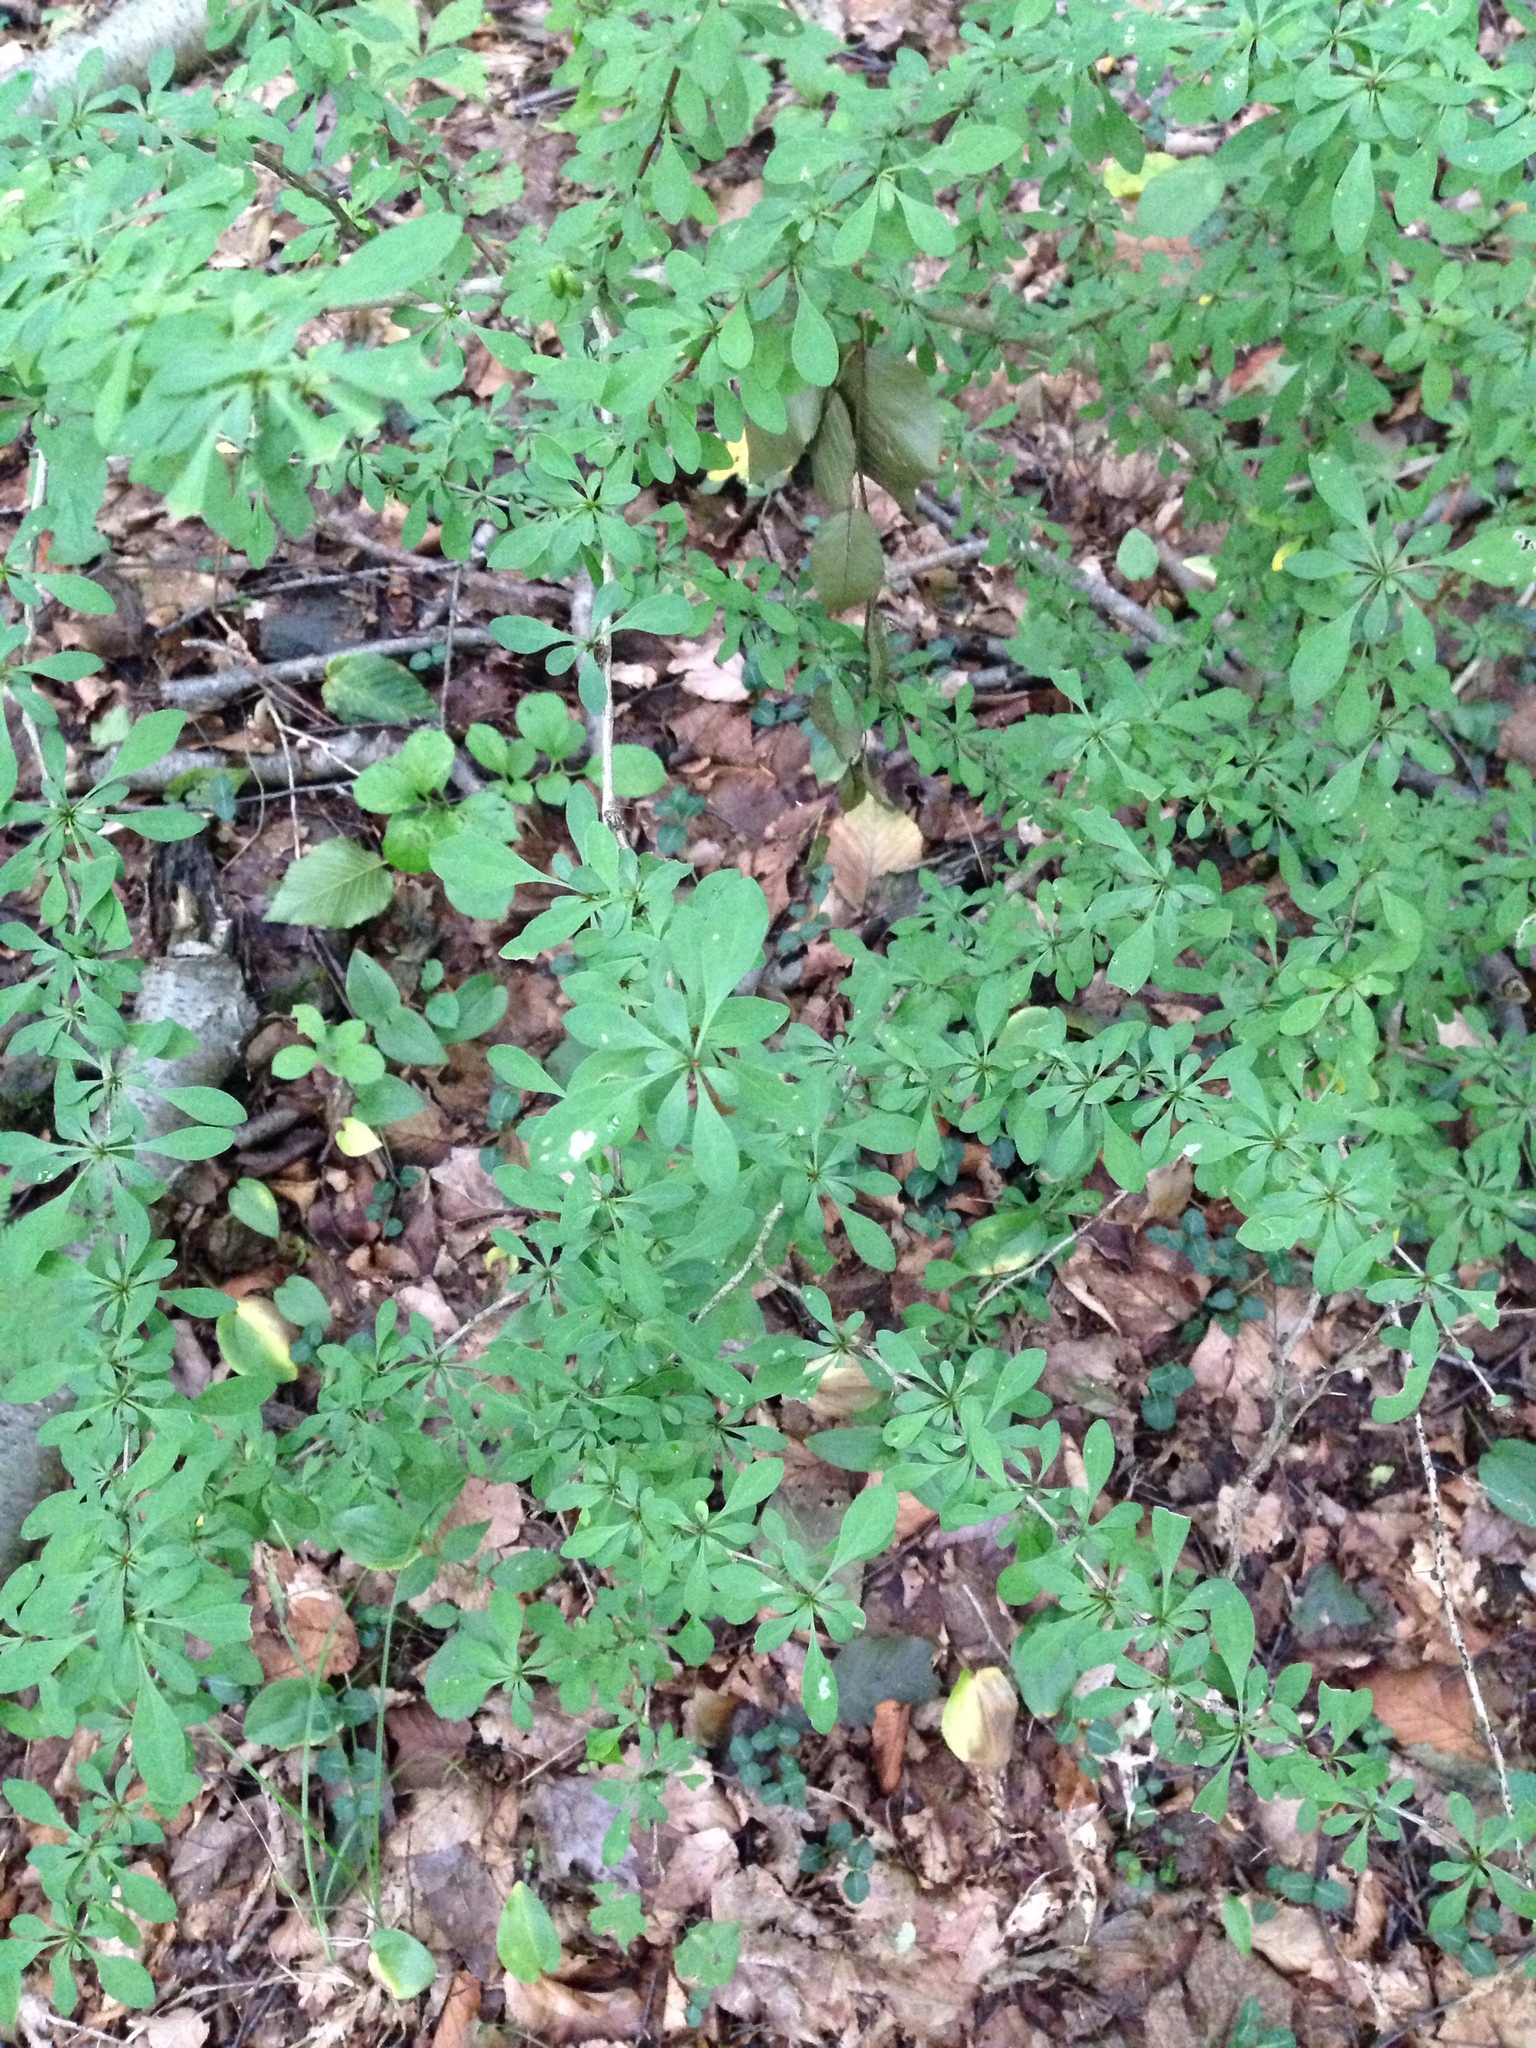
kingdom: Plantae
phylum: Tracheophyta
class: Magnoliopsida
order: Ranunculales
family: Berberidaceae
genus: Berberis
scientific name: Berberis thunbergii
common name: Japanese barberry
